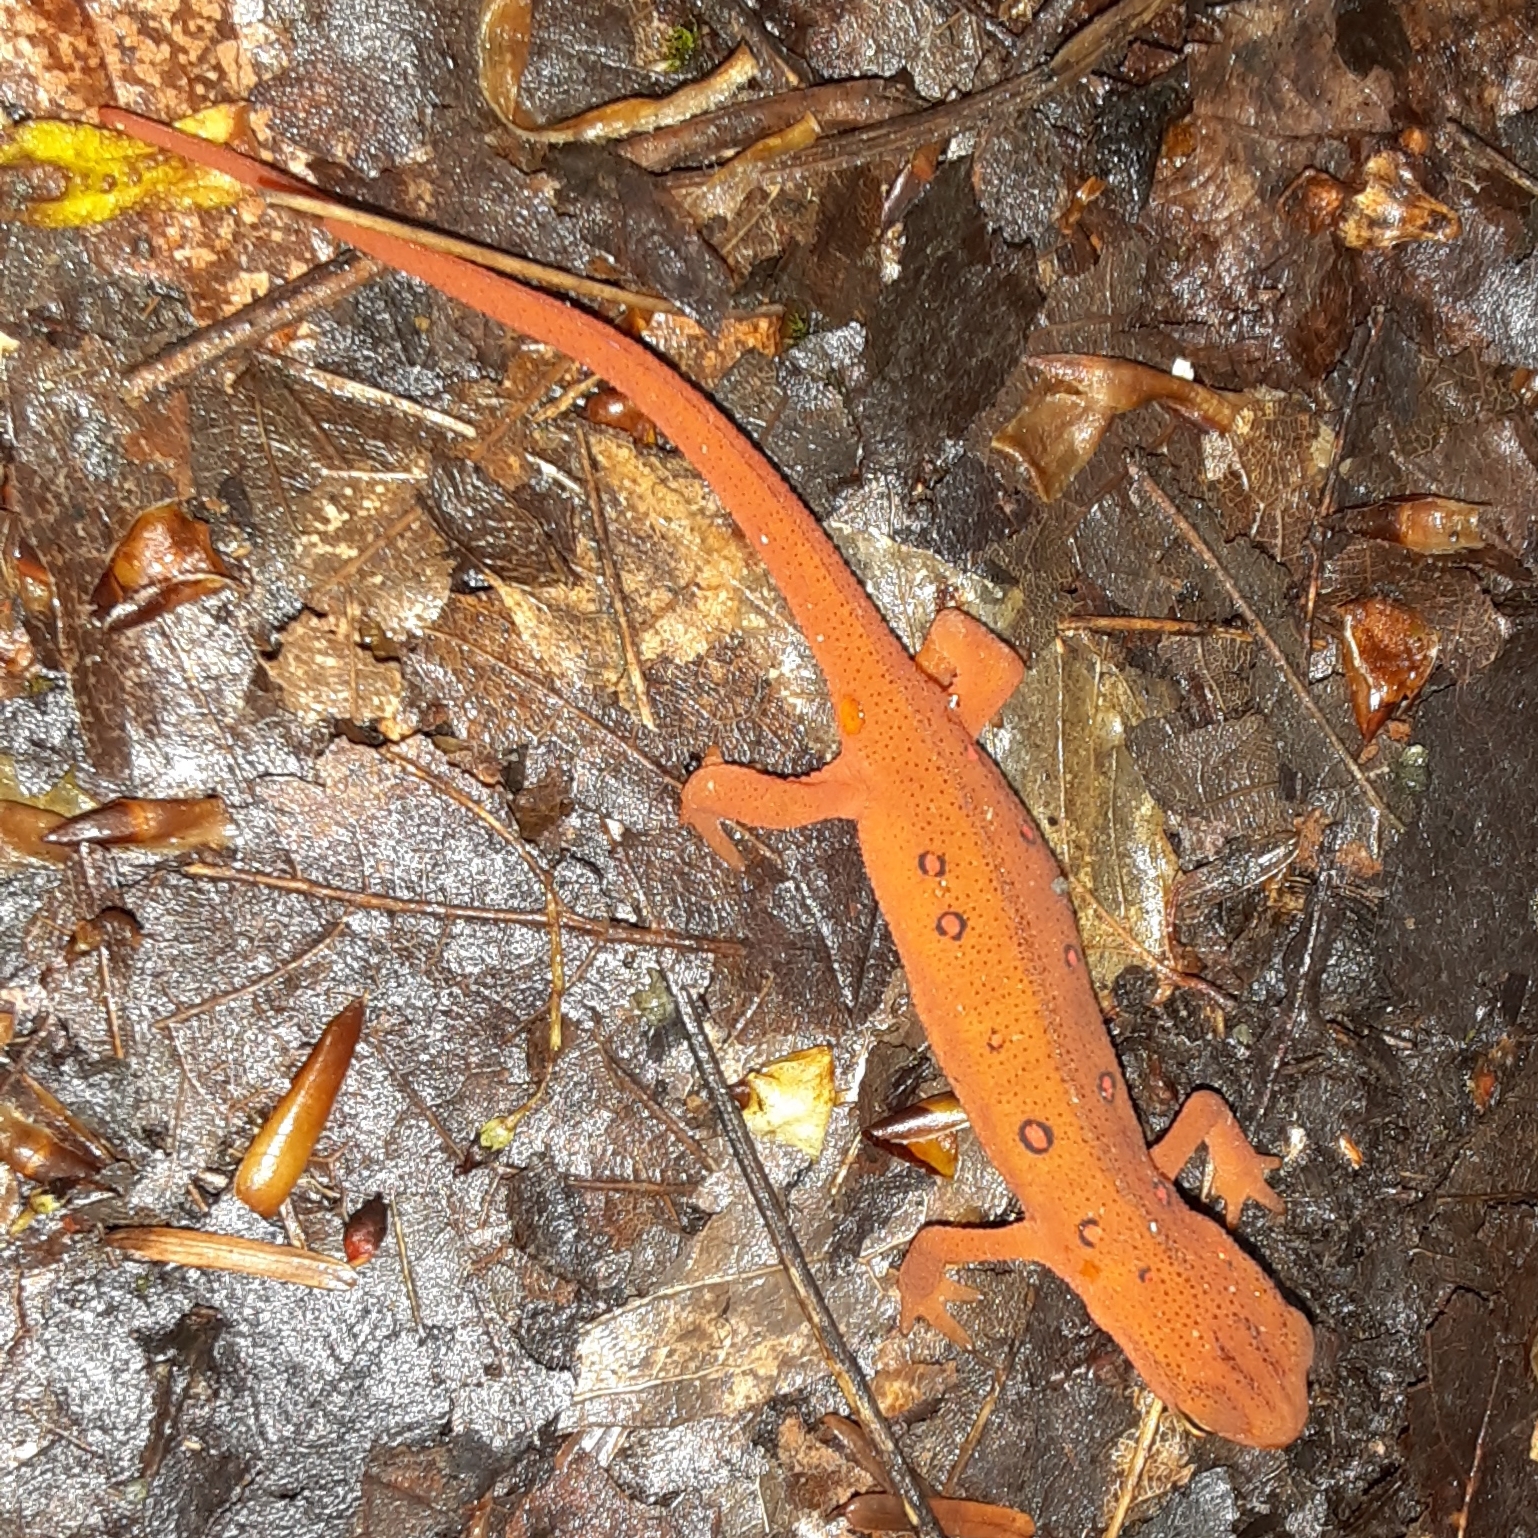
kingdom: Animalia
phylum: Chordata
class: Amphibia
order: Caudata
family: Salamandridae
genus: Notophthalmus
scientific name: Notophthalmus viridescens
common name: Eastern newt
